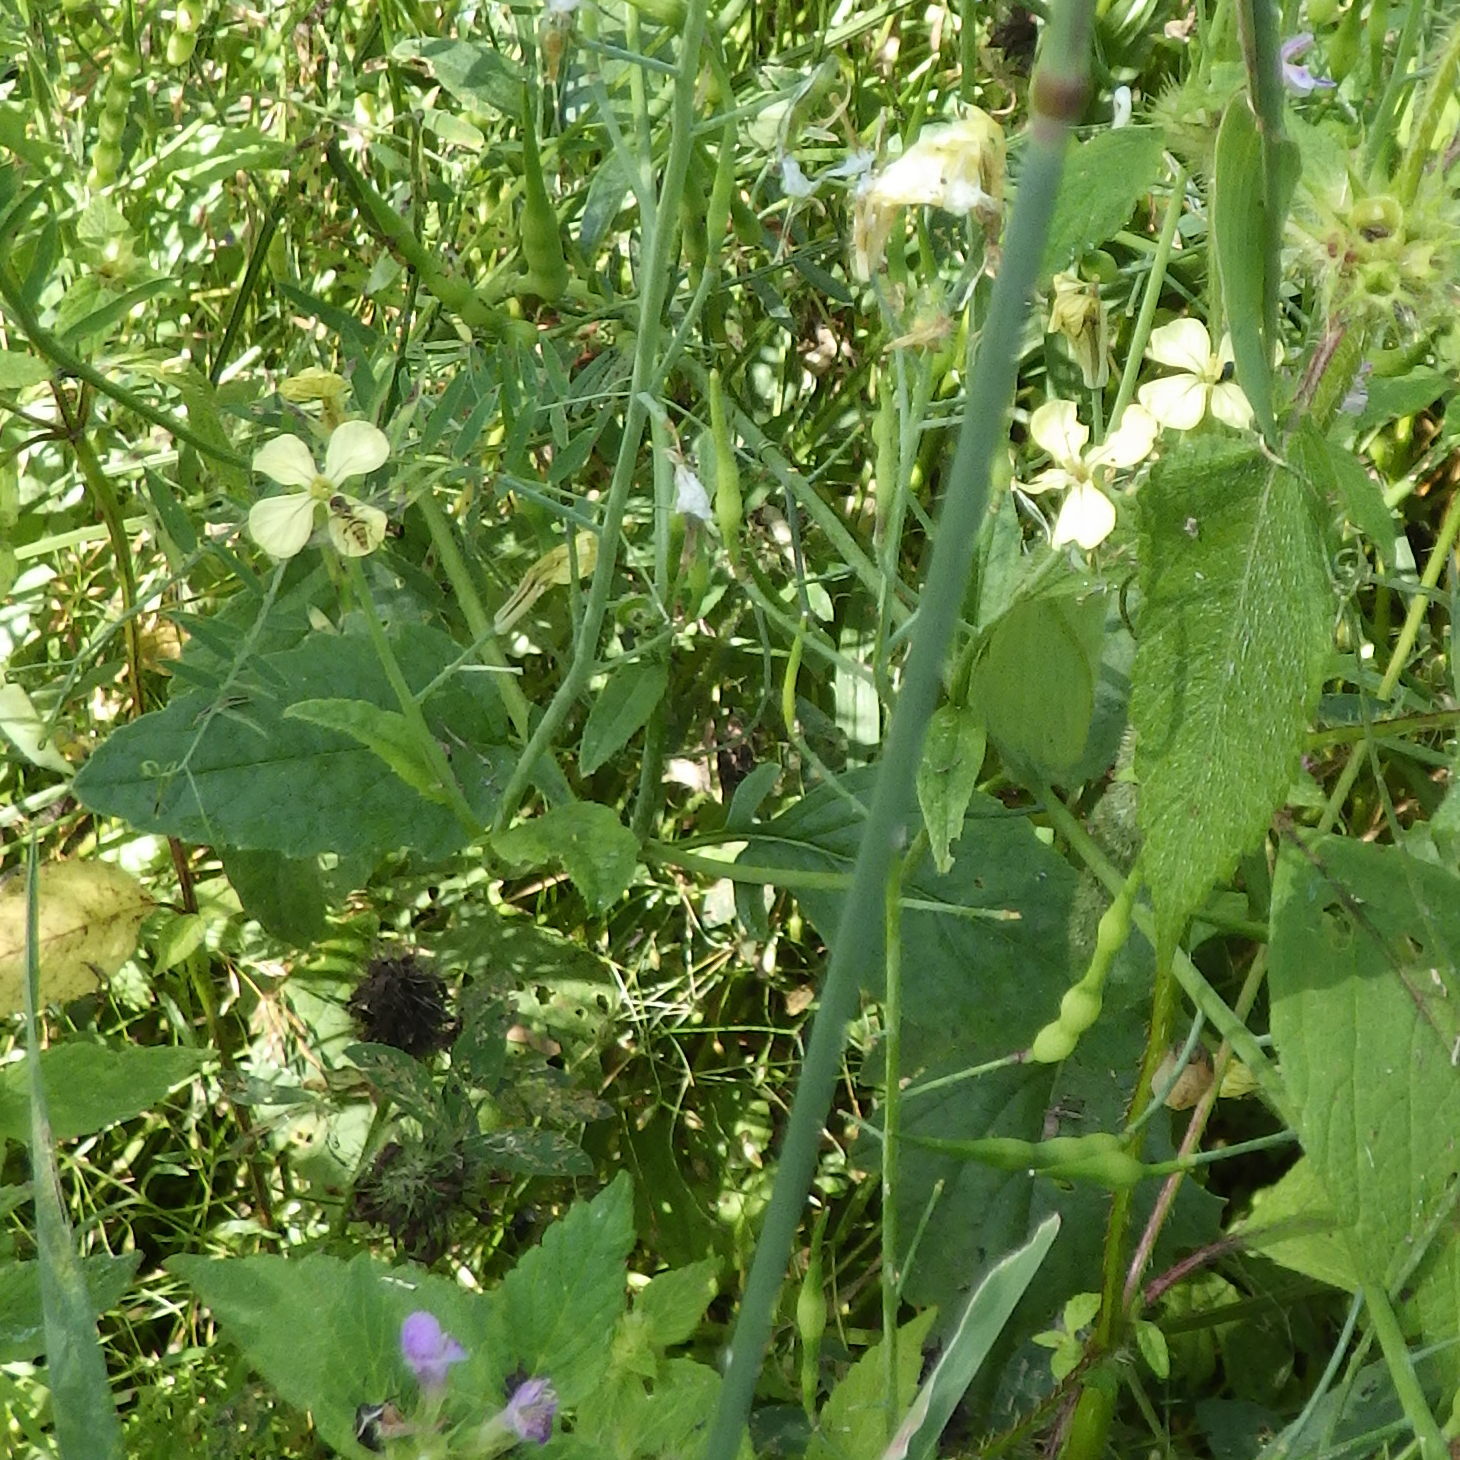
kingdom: Plantae
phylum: Tracheophyta
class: Magnoliopsida
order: Brassicales
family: Brassicaceae
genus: Raphanus
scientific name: Raphanus raphanistrum
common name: Wild radish
